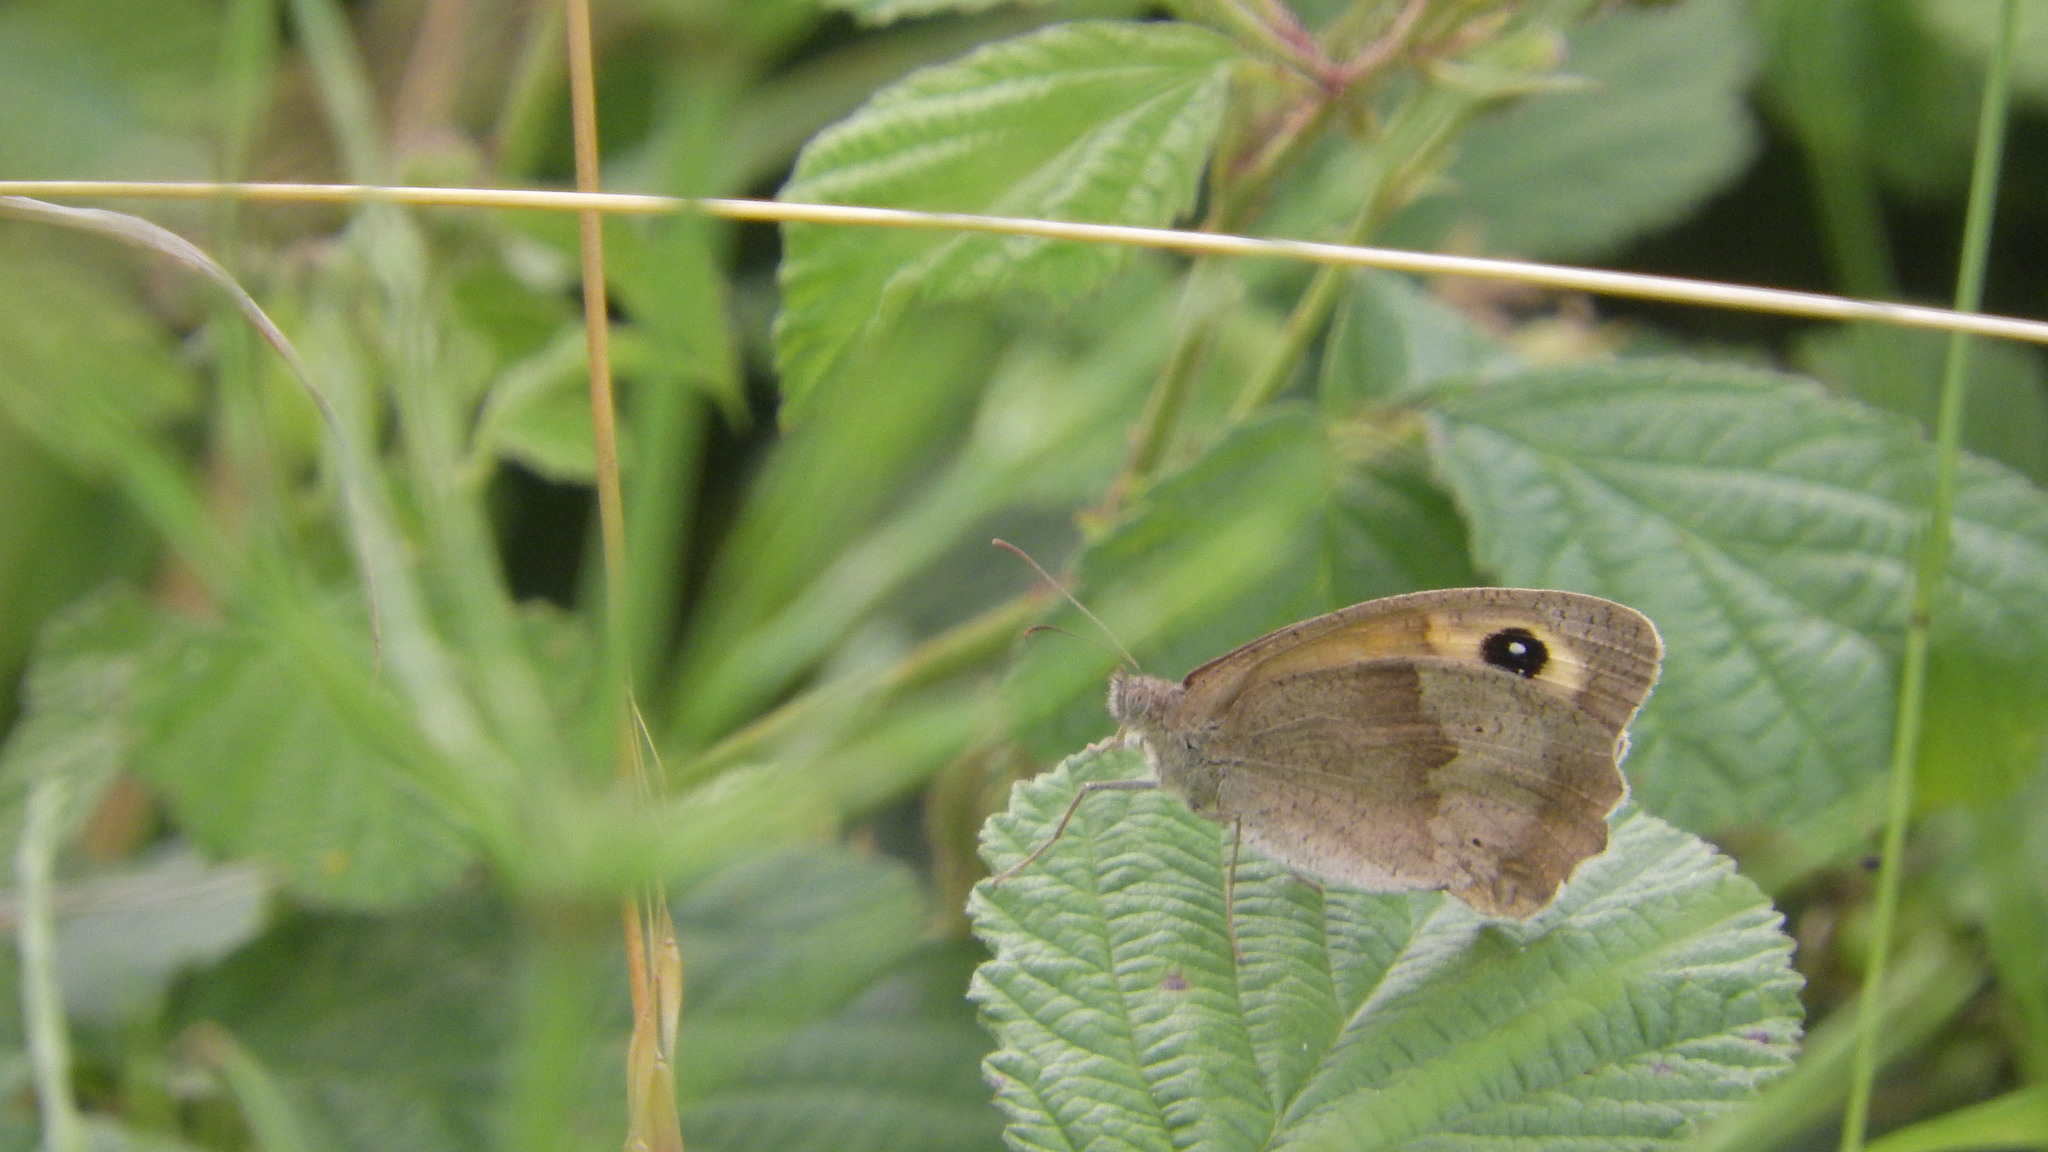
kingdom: Animalia
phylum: Arthropoda
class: Insecta
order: Lepidoptera
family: Nymphalidae
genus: Maniola
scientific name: Maniola jurtina
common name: Meadow brown
